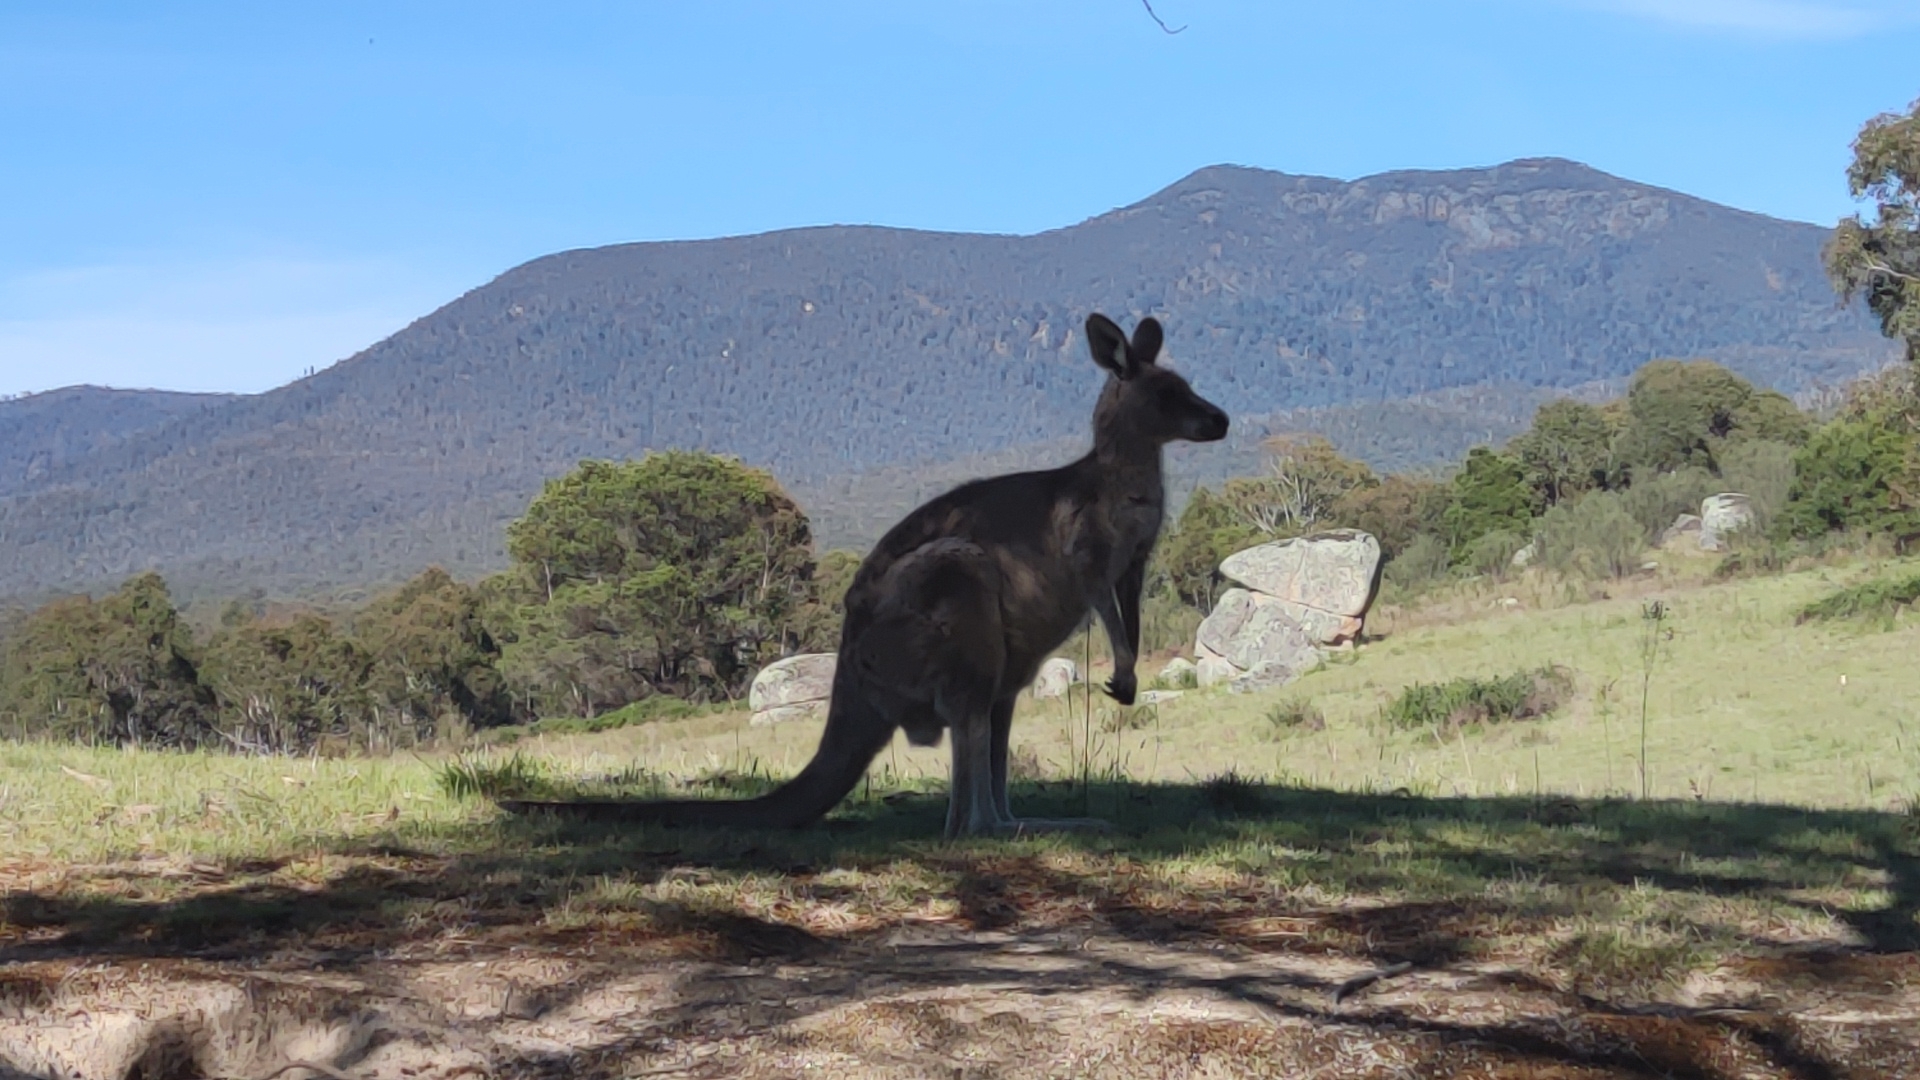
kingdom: Animalia
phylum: Chordata
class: Mammalia
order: Diprotodontia
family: Macropodidae
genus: Macropus
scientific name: Macropus giganteus
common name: Eastern grey kangaroo
